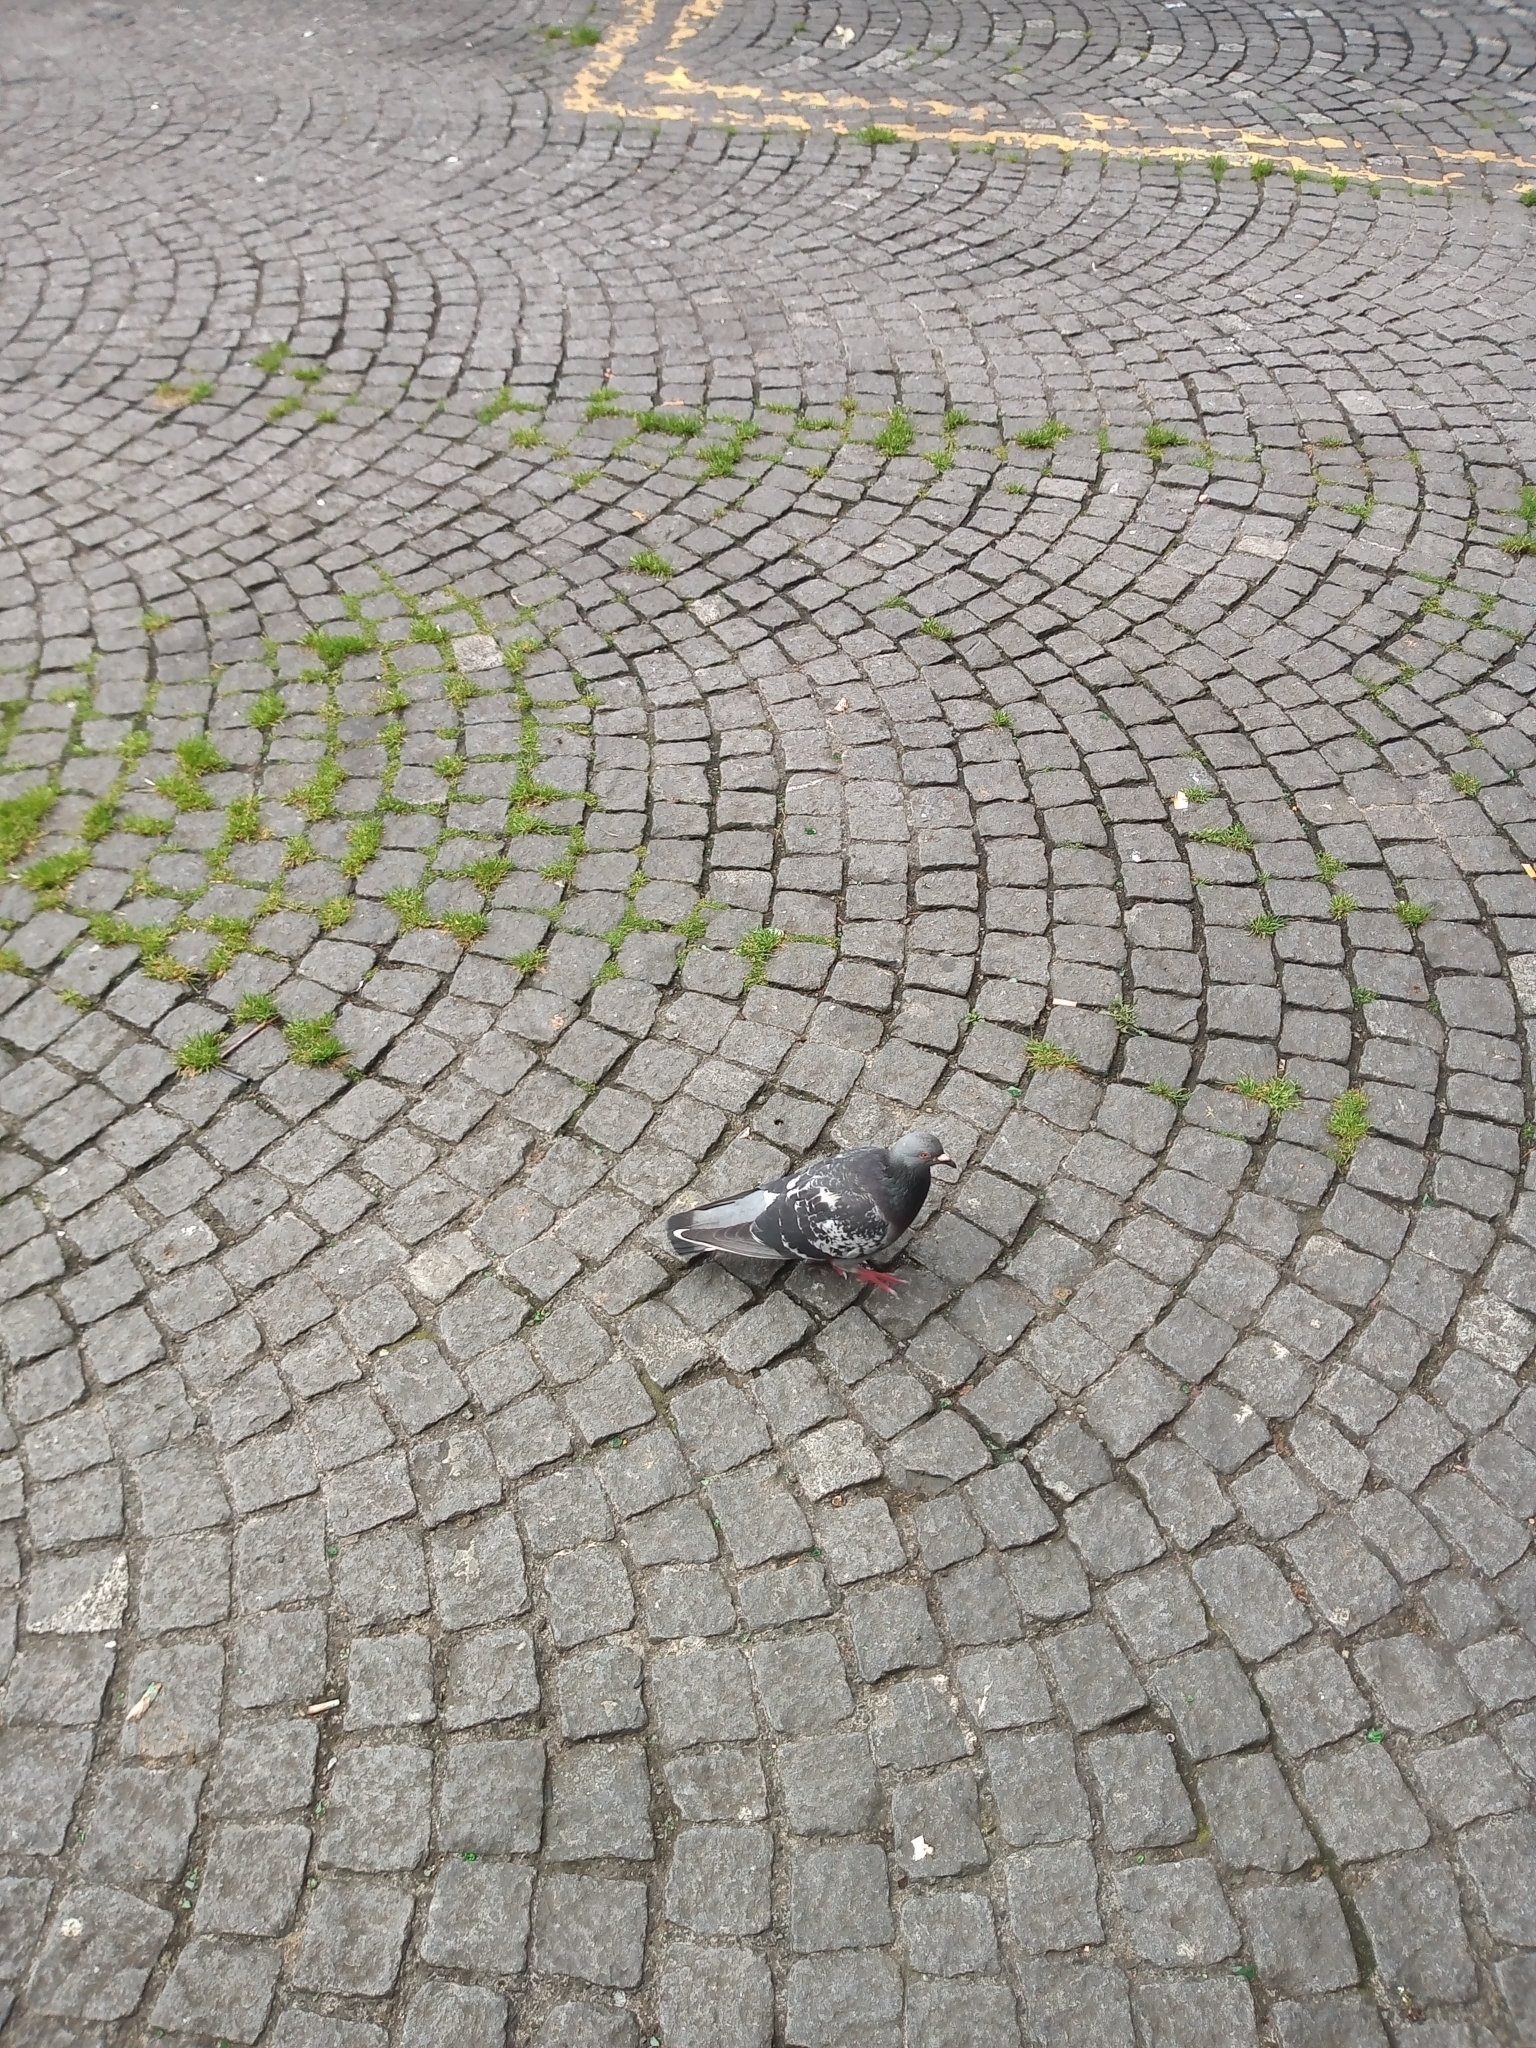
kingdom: Animalia
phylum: Chordata
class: Aves
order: Columbiformes
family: Columbidae
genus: Columba
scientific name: Columba livia
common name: Rock pigeon
